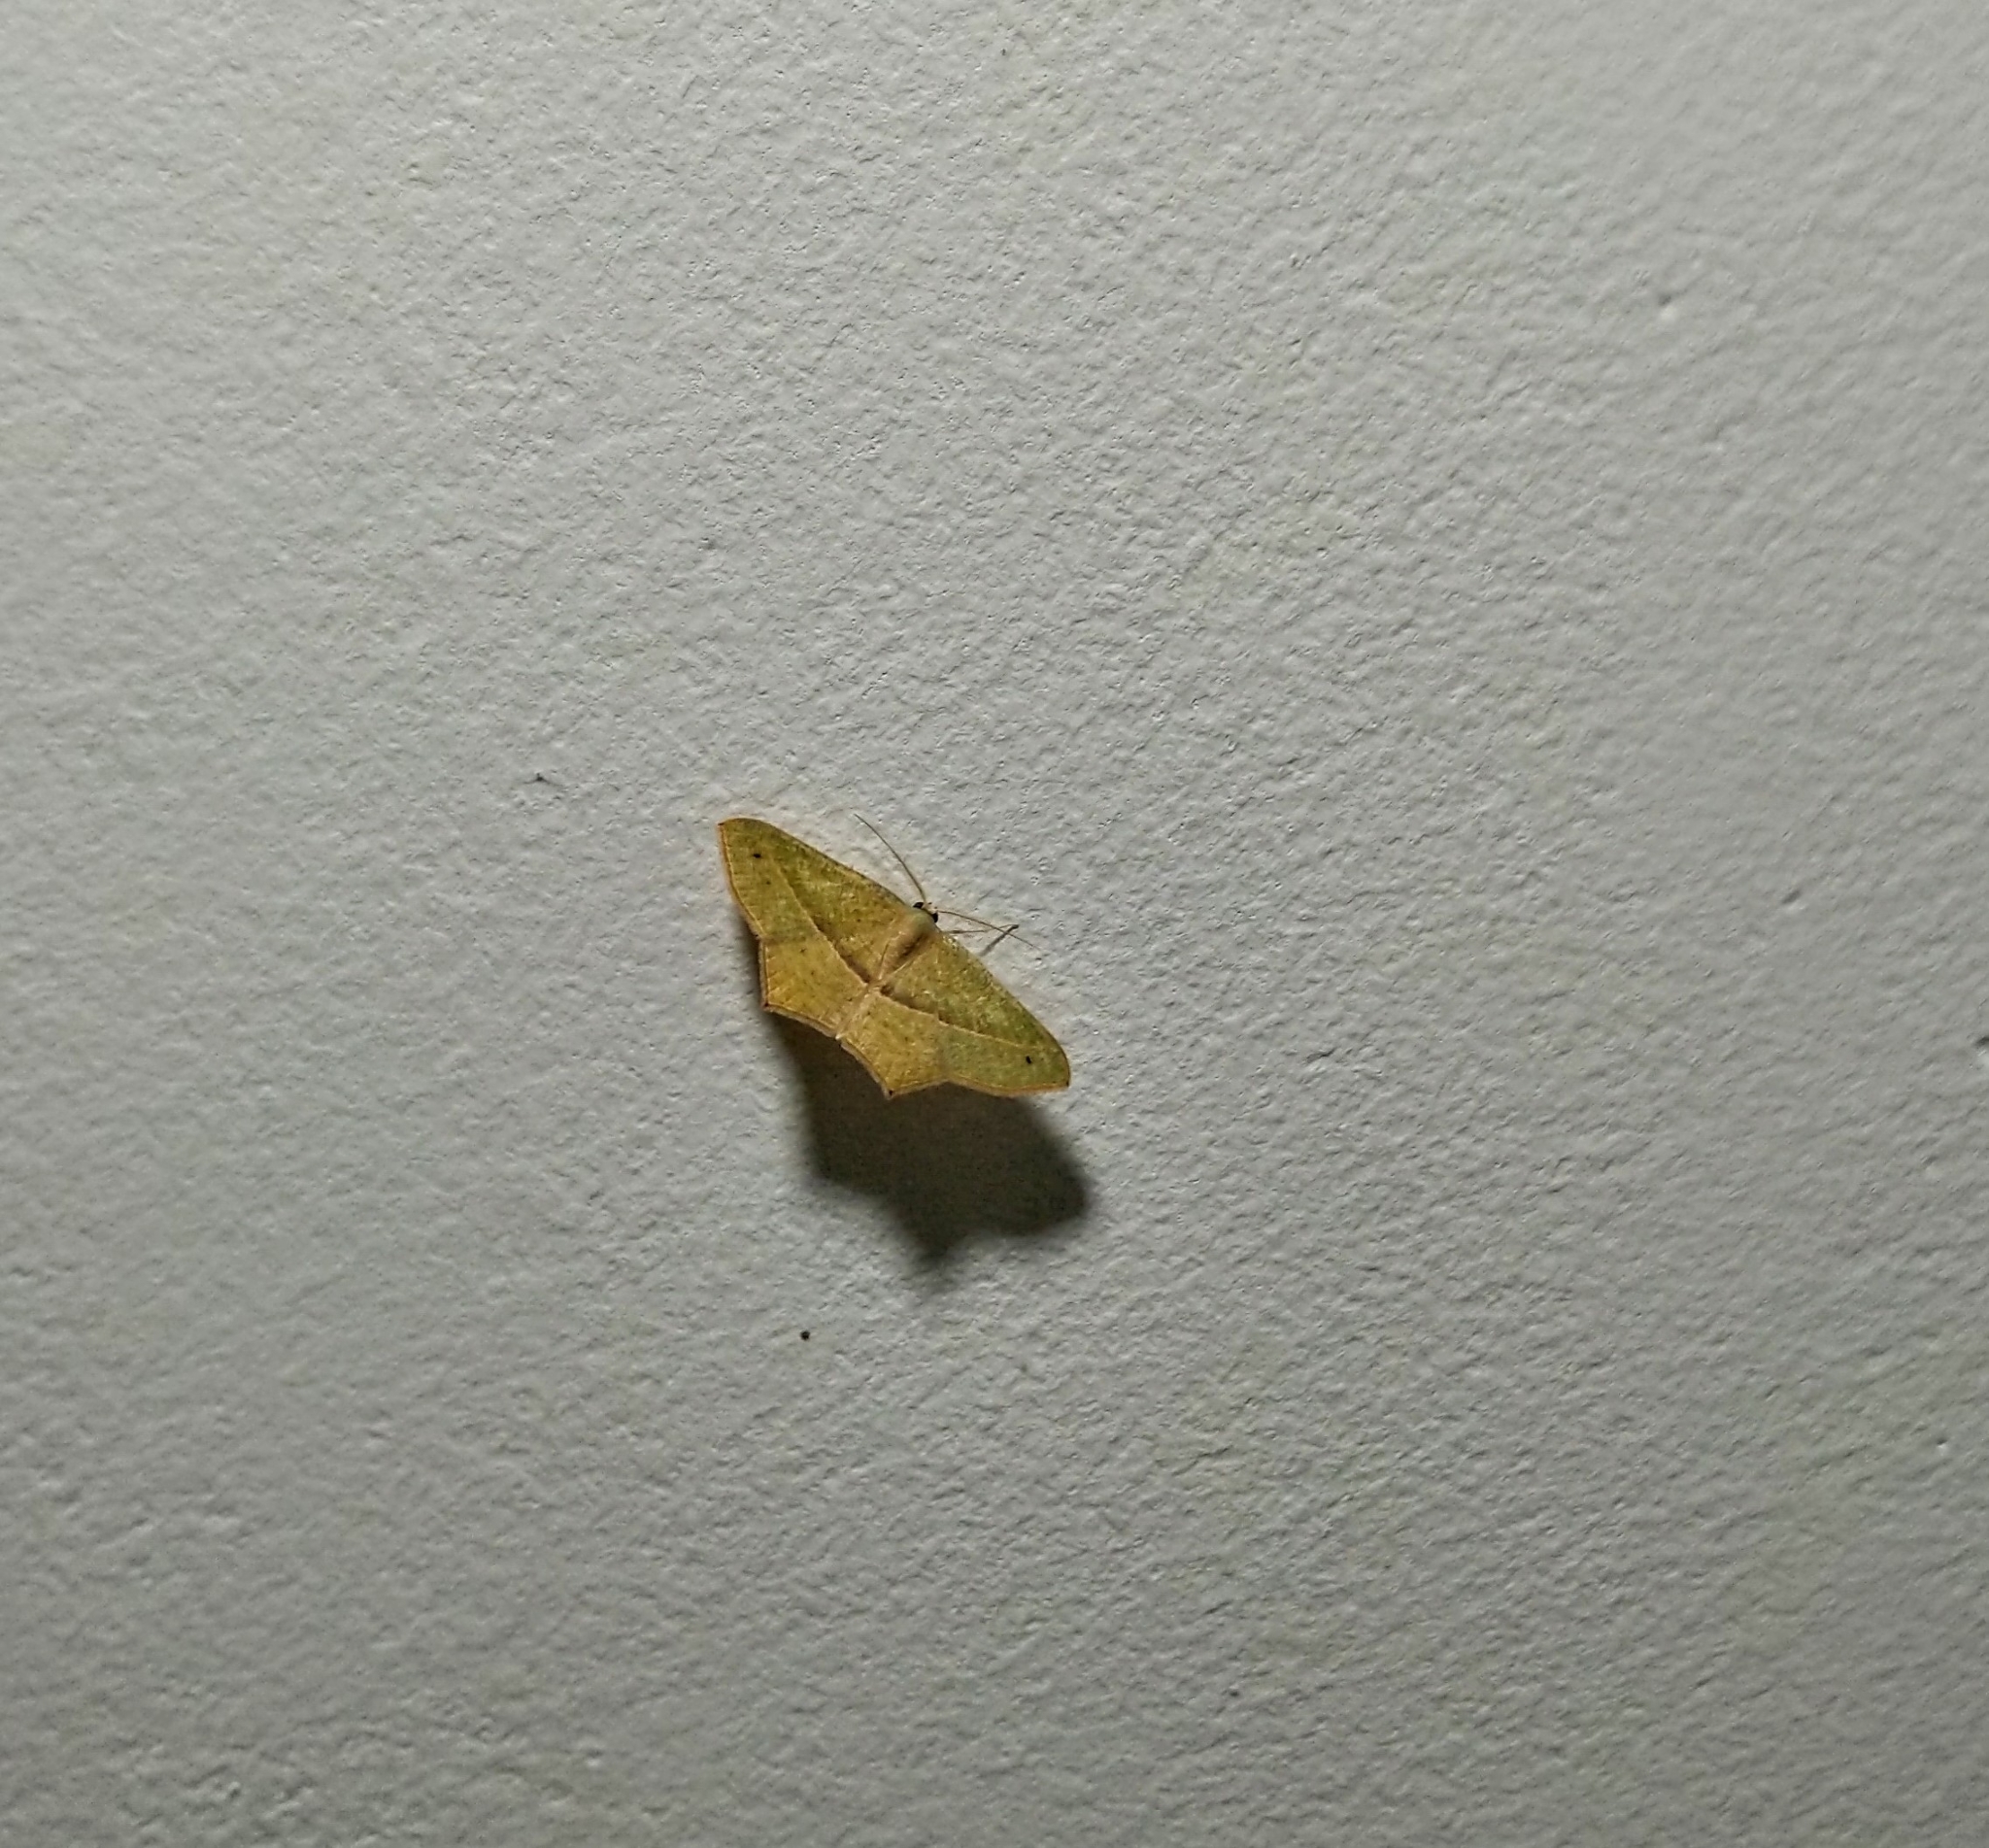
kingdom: Animalia
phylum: Arthropoda
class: Insecta
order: Lepidoptera
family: Geometridae
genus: Traminda
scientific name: Traminda mundissima
